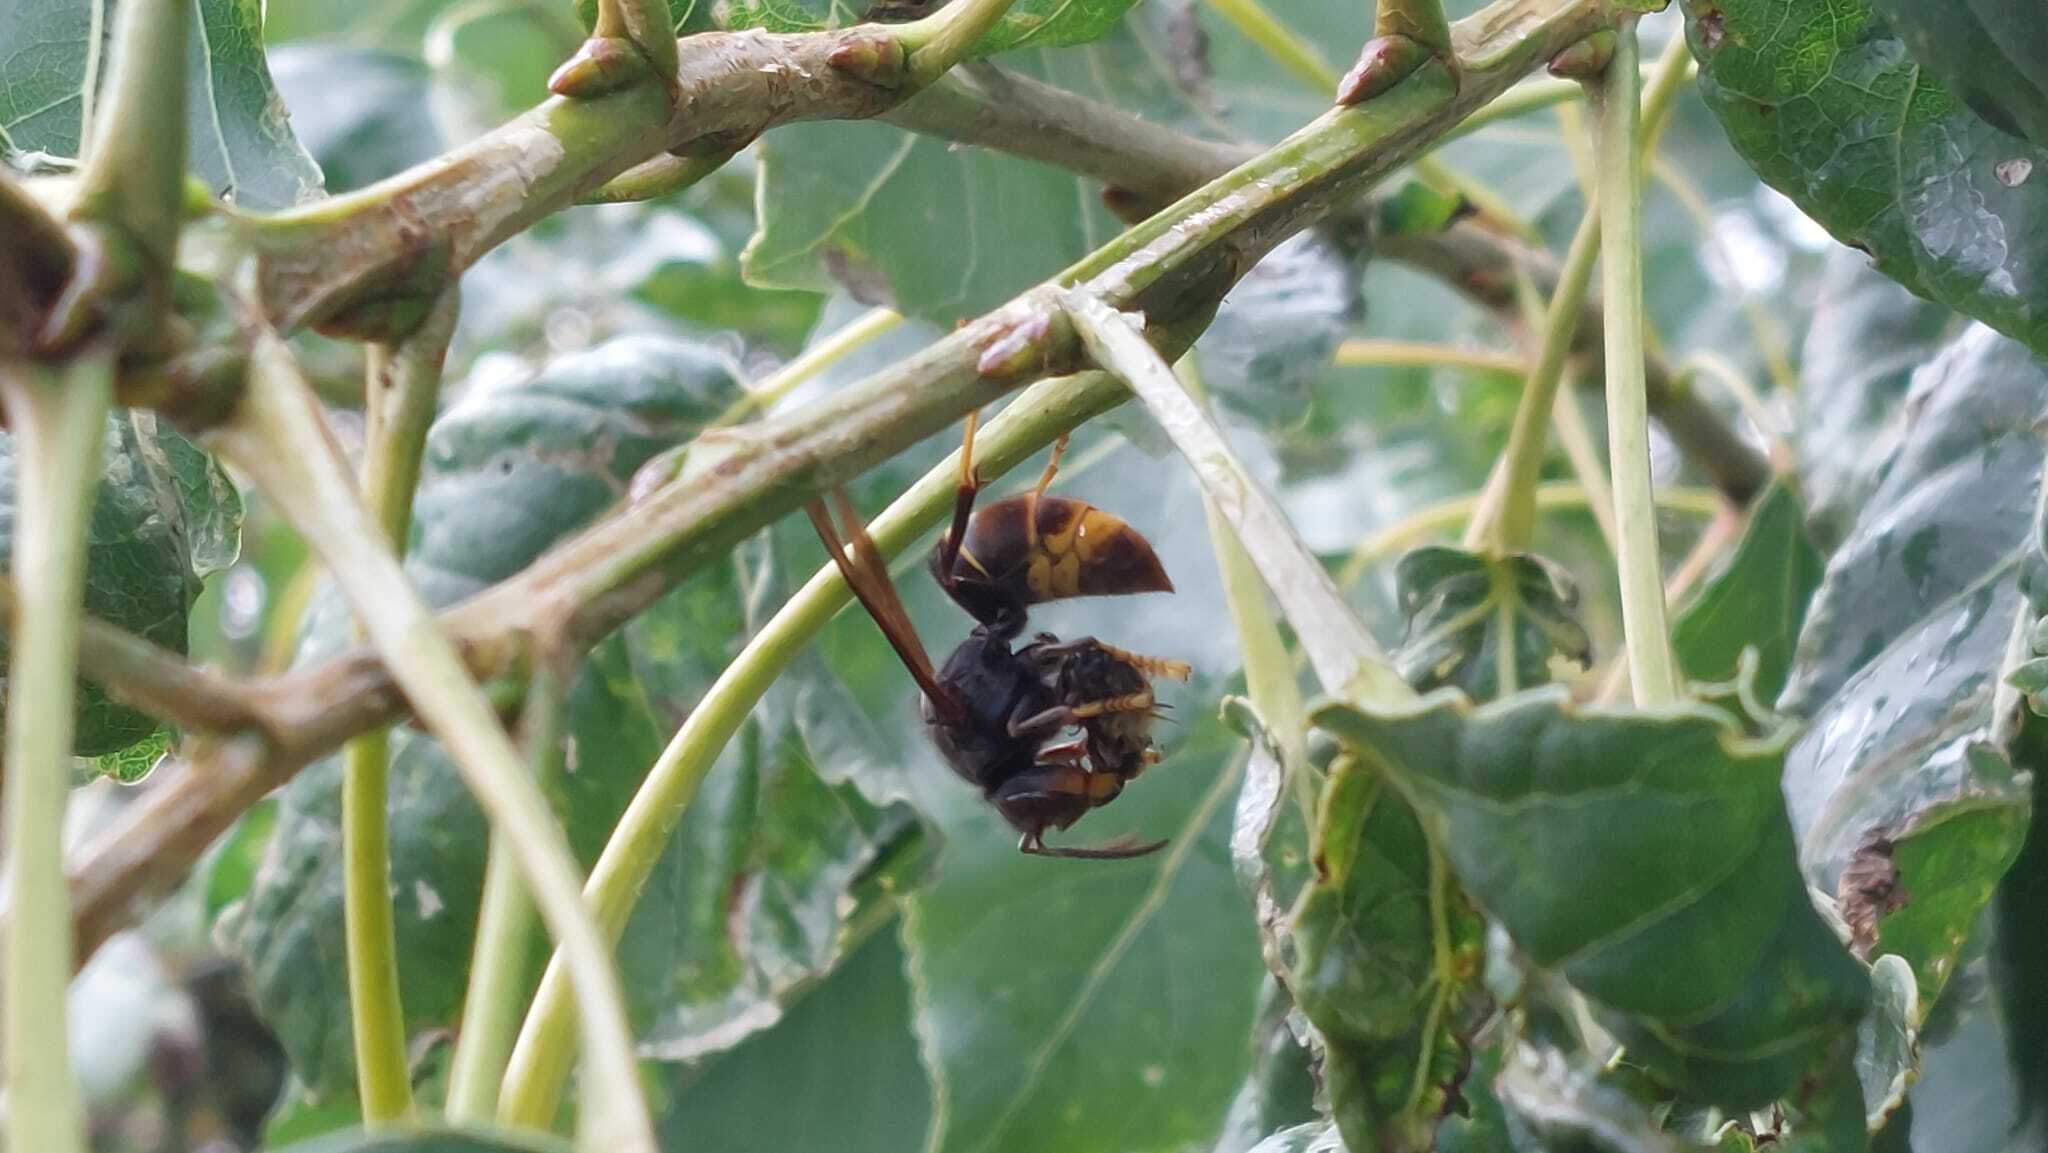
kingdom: Animalia
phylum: Arthropoda
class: Insecta
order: Hymenoptera
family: Vespidae
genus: Vespa
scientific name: Vespa velutina
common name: Asian hornet
